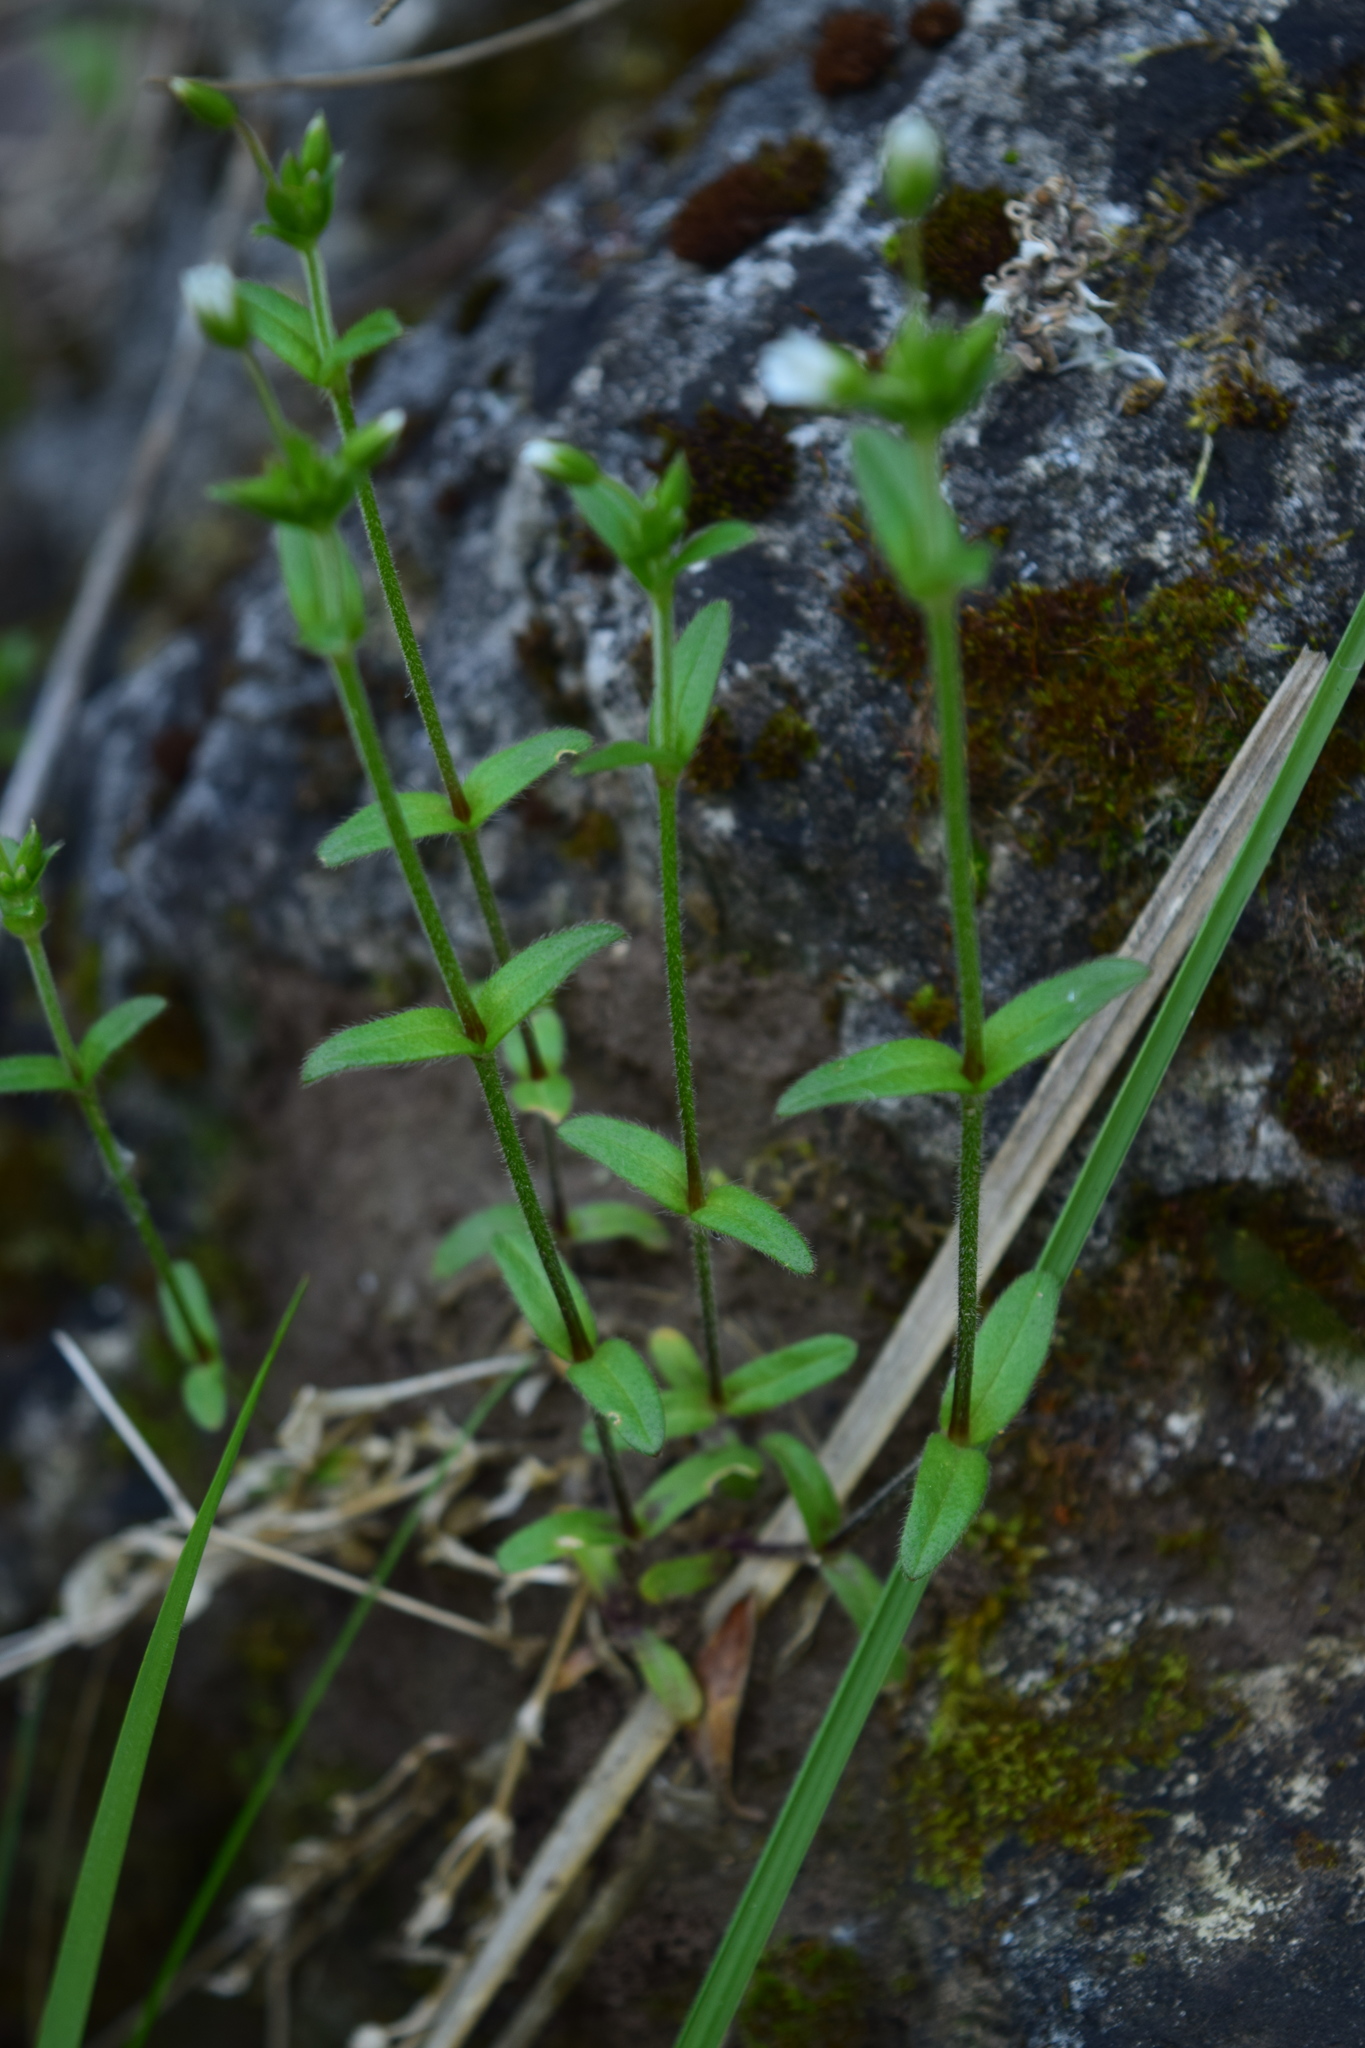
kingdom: Plantae
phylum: Tracheophyta
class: Magnoliopsida
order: Caryophyllales
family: Caryophyllaceae
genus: Cerastium
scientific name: Cerastium holosteoides
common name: Big chickweed
